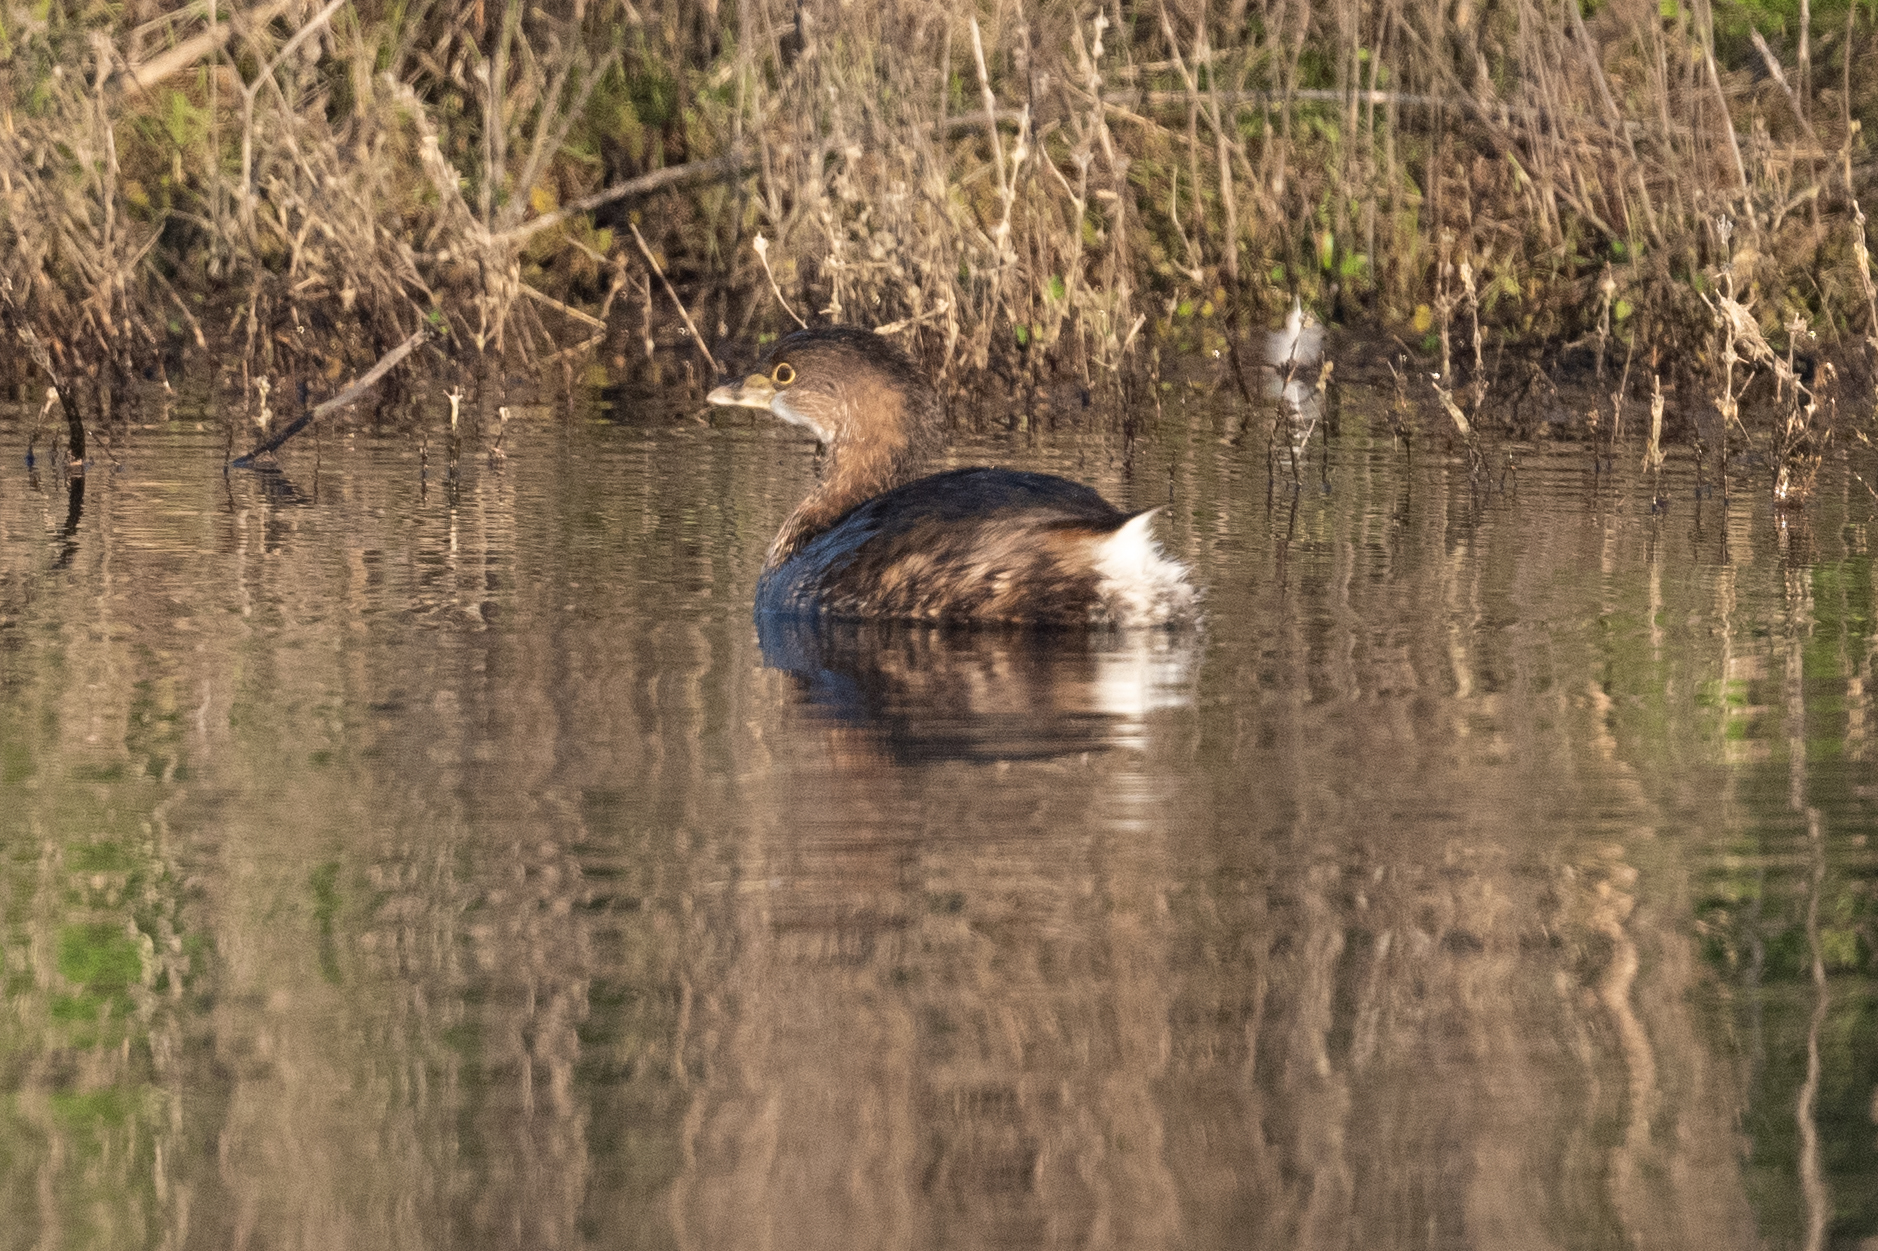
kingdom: Animalia
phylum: Chordata
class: Aves
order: Podicipediformes
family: Podicipedidae
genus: Podilymbus
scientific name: Podilymbus podiceps
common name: Pied-billed grebe
